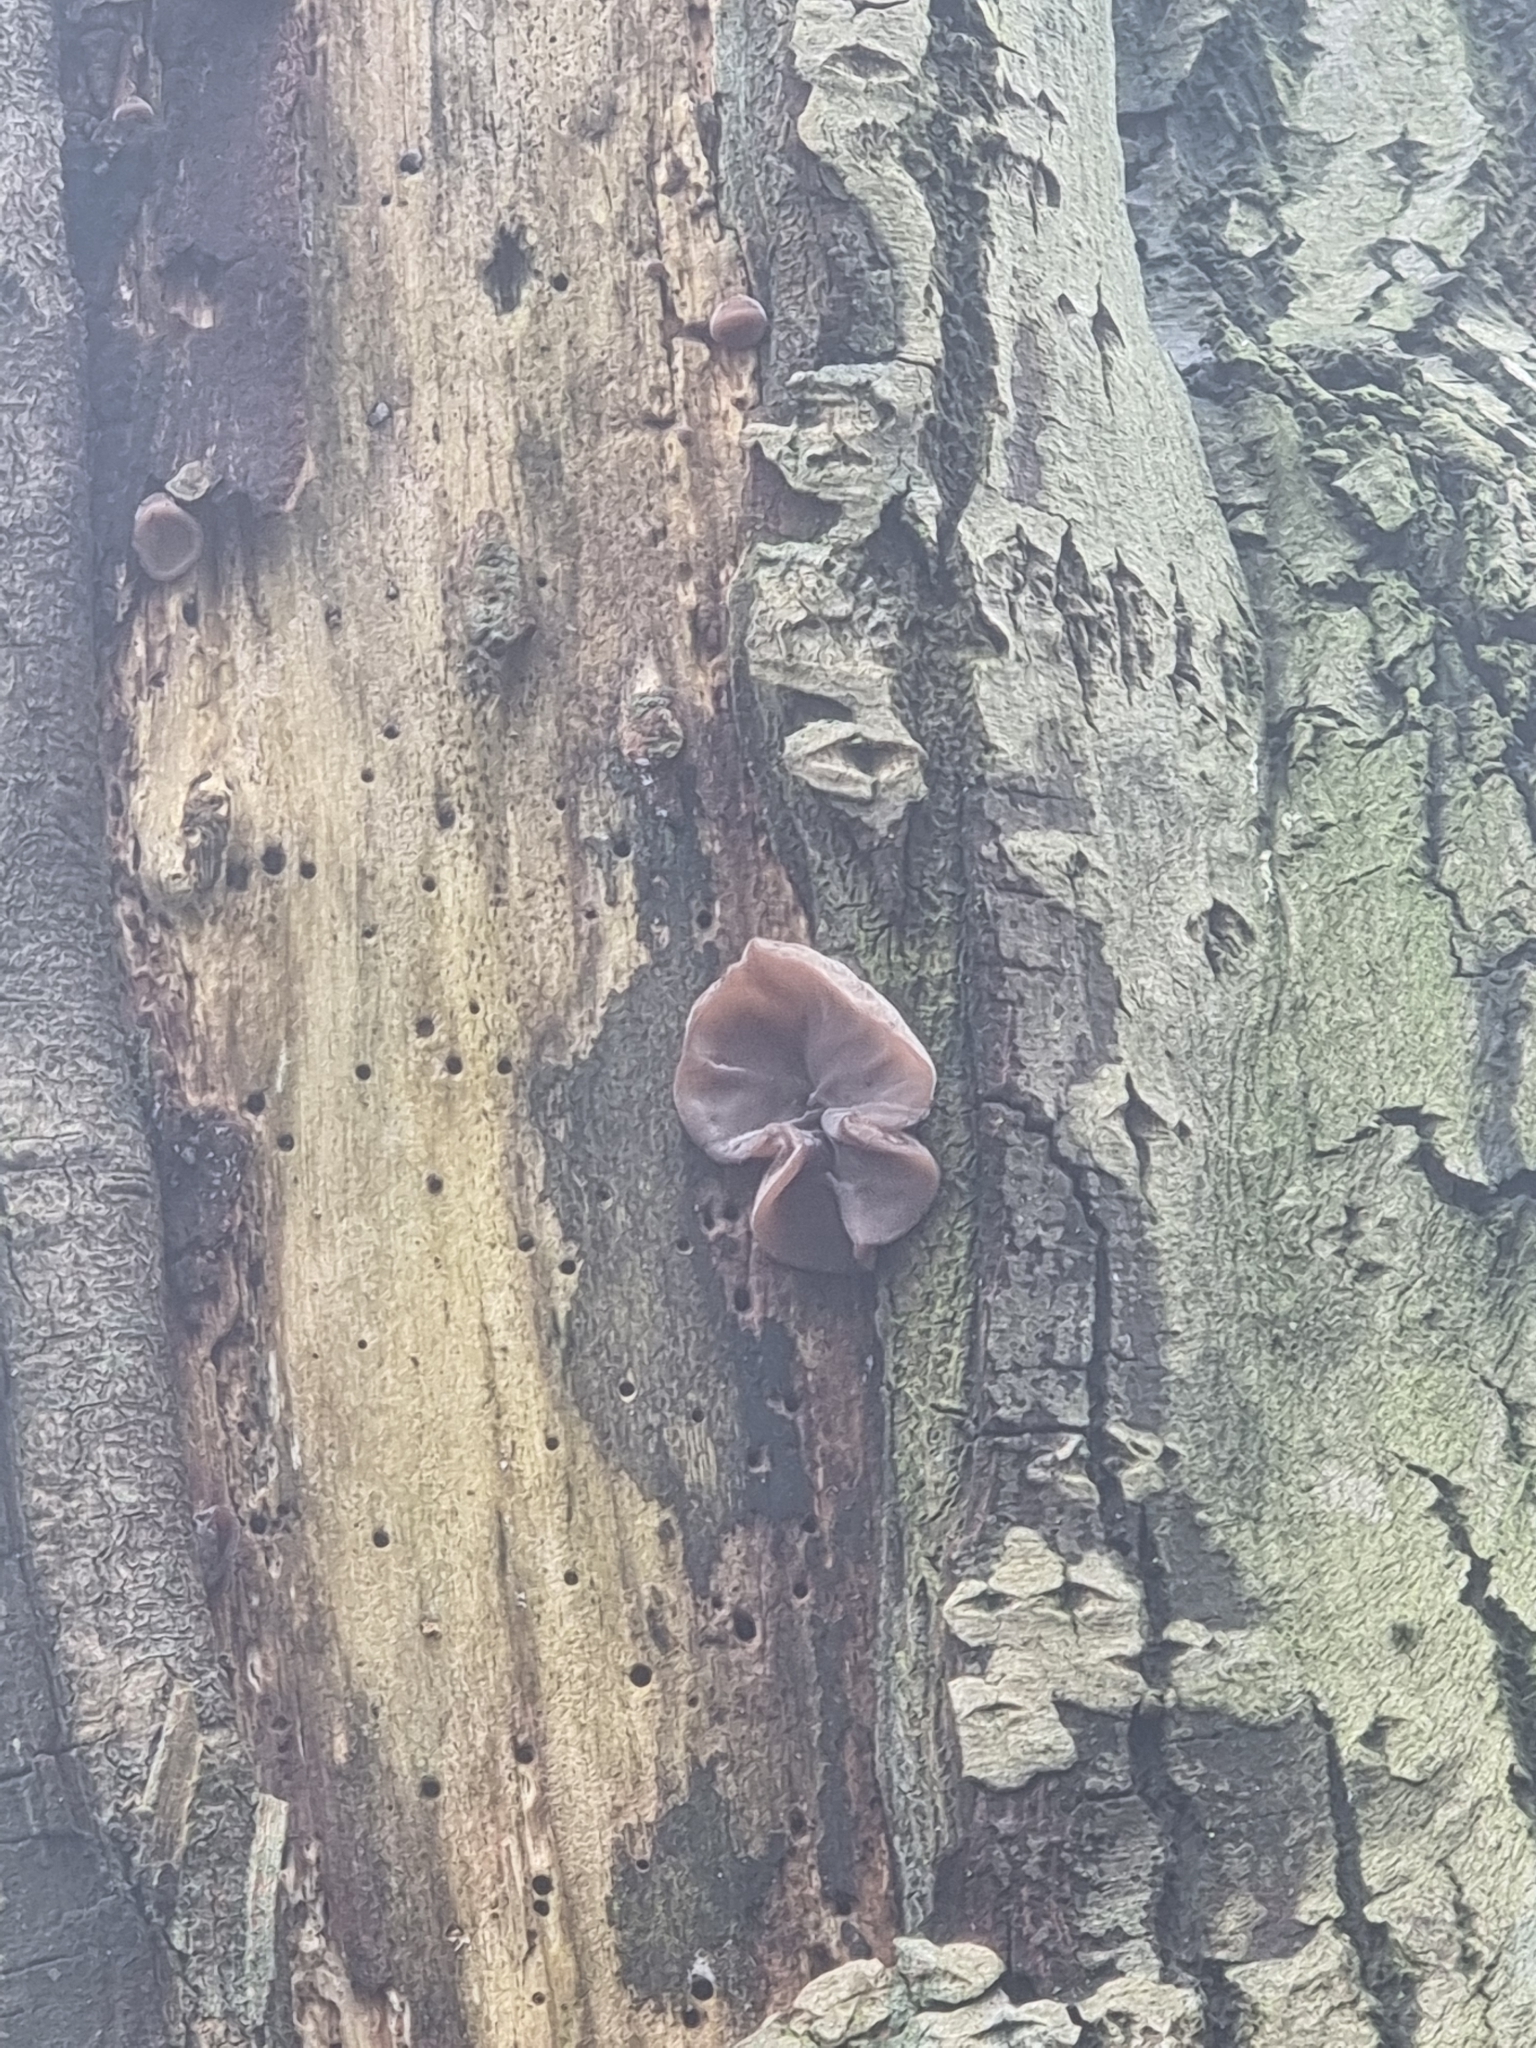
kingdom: Fungi
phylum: Basidiomycota
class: Agaricomycetes
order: Auriculariales
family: Auriculariaceae
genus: Auricularia
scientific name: Auricularia auricula-judae
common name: Jelly ear
